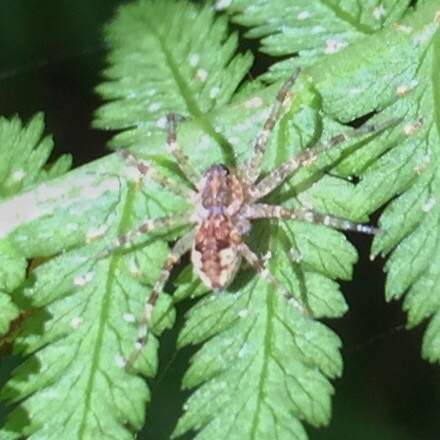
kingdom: Animalia
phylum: Arthropoda
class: Arachnida
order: Araneae
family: Pisauridae
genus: Dolomedes
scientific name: Dolomedes tenebrosus
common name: Dark fishing spider
